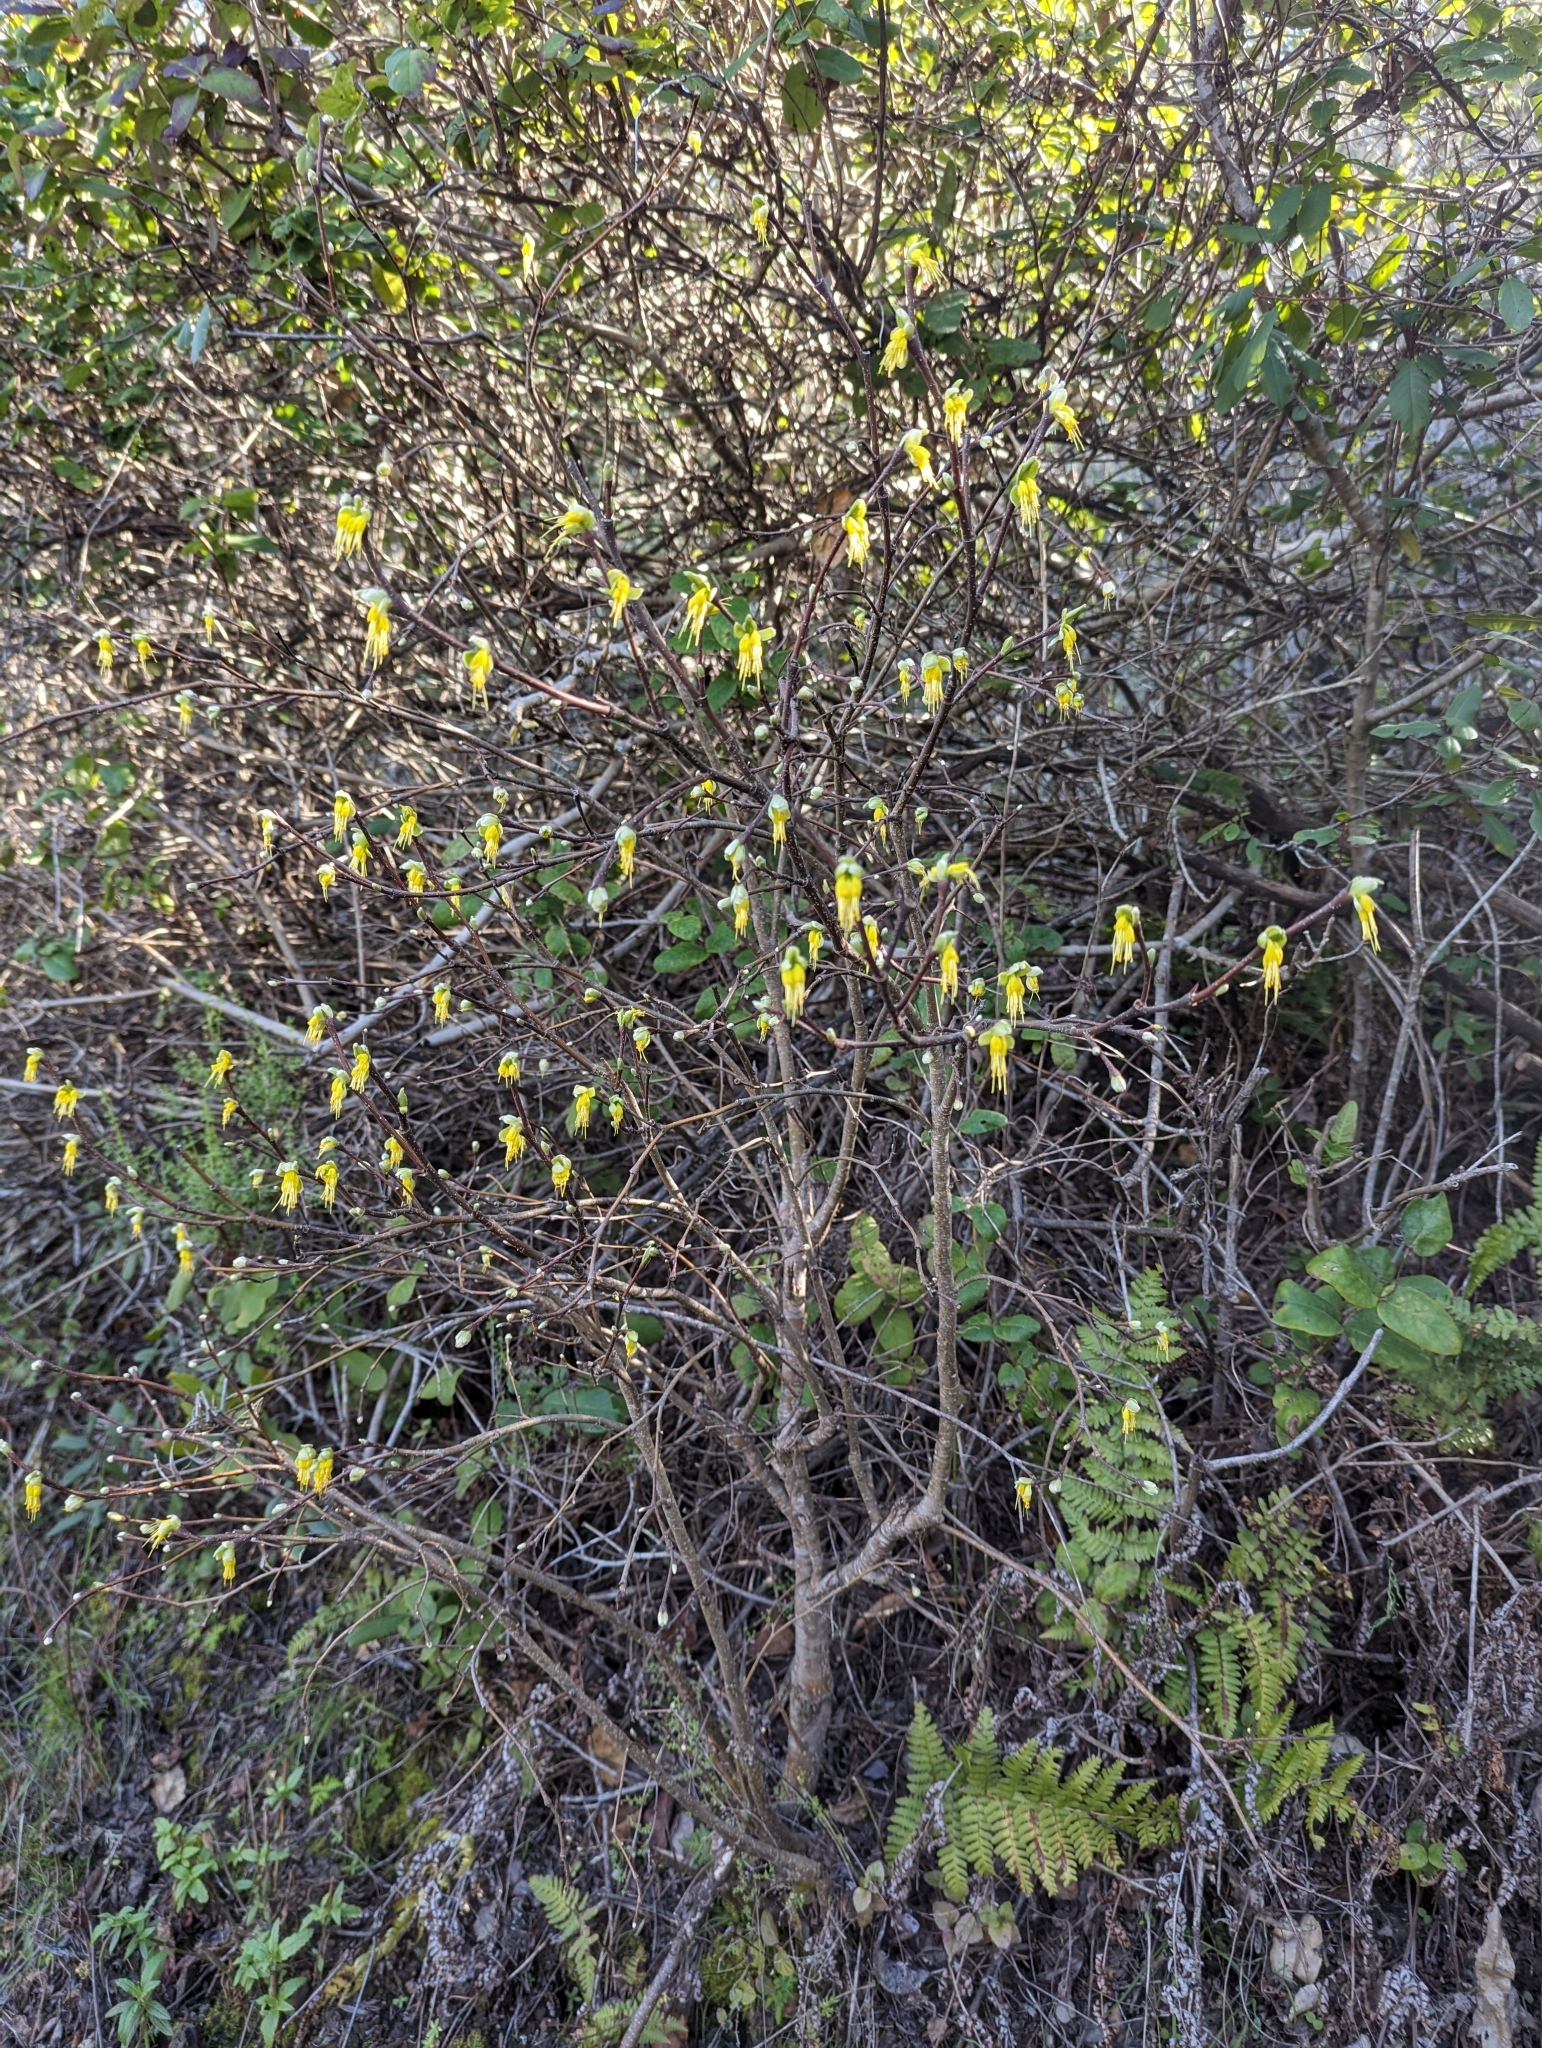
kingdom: Plantae
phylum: Tracheophyta
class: Magnoliopsida
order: Malvales
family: Thymelaeaceae
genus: Dirca
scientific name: Dirca occidentalis
